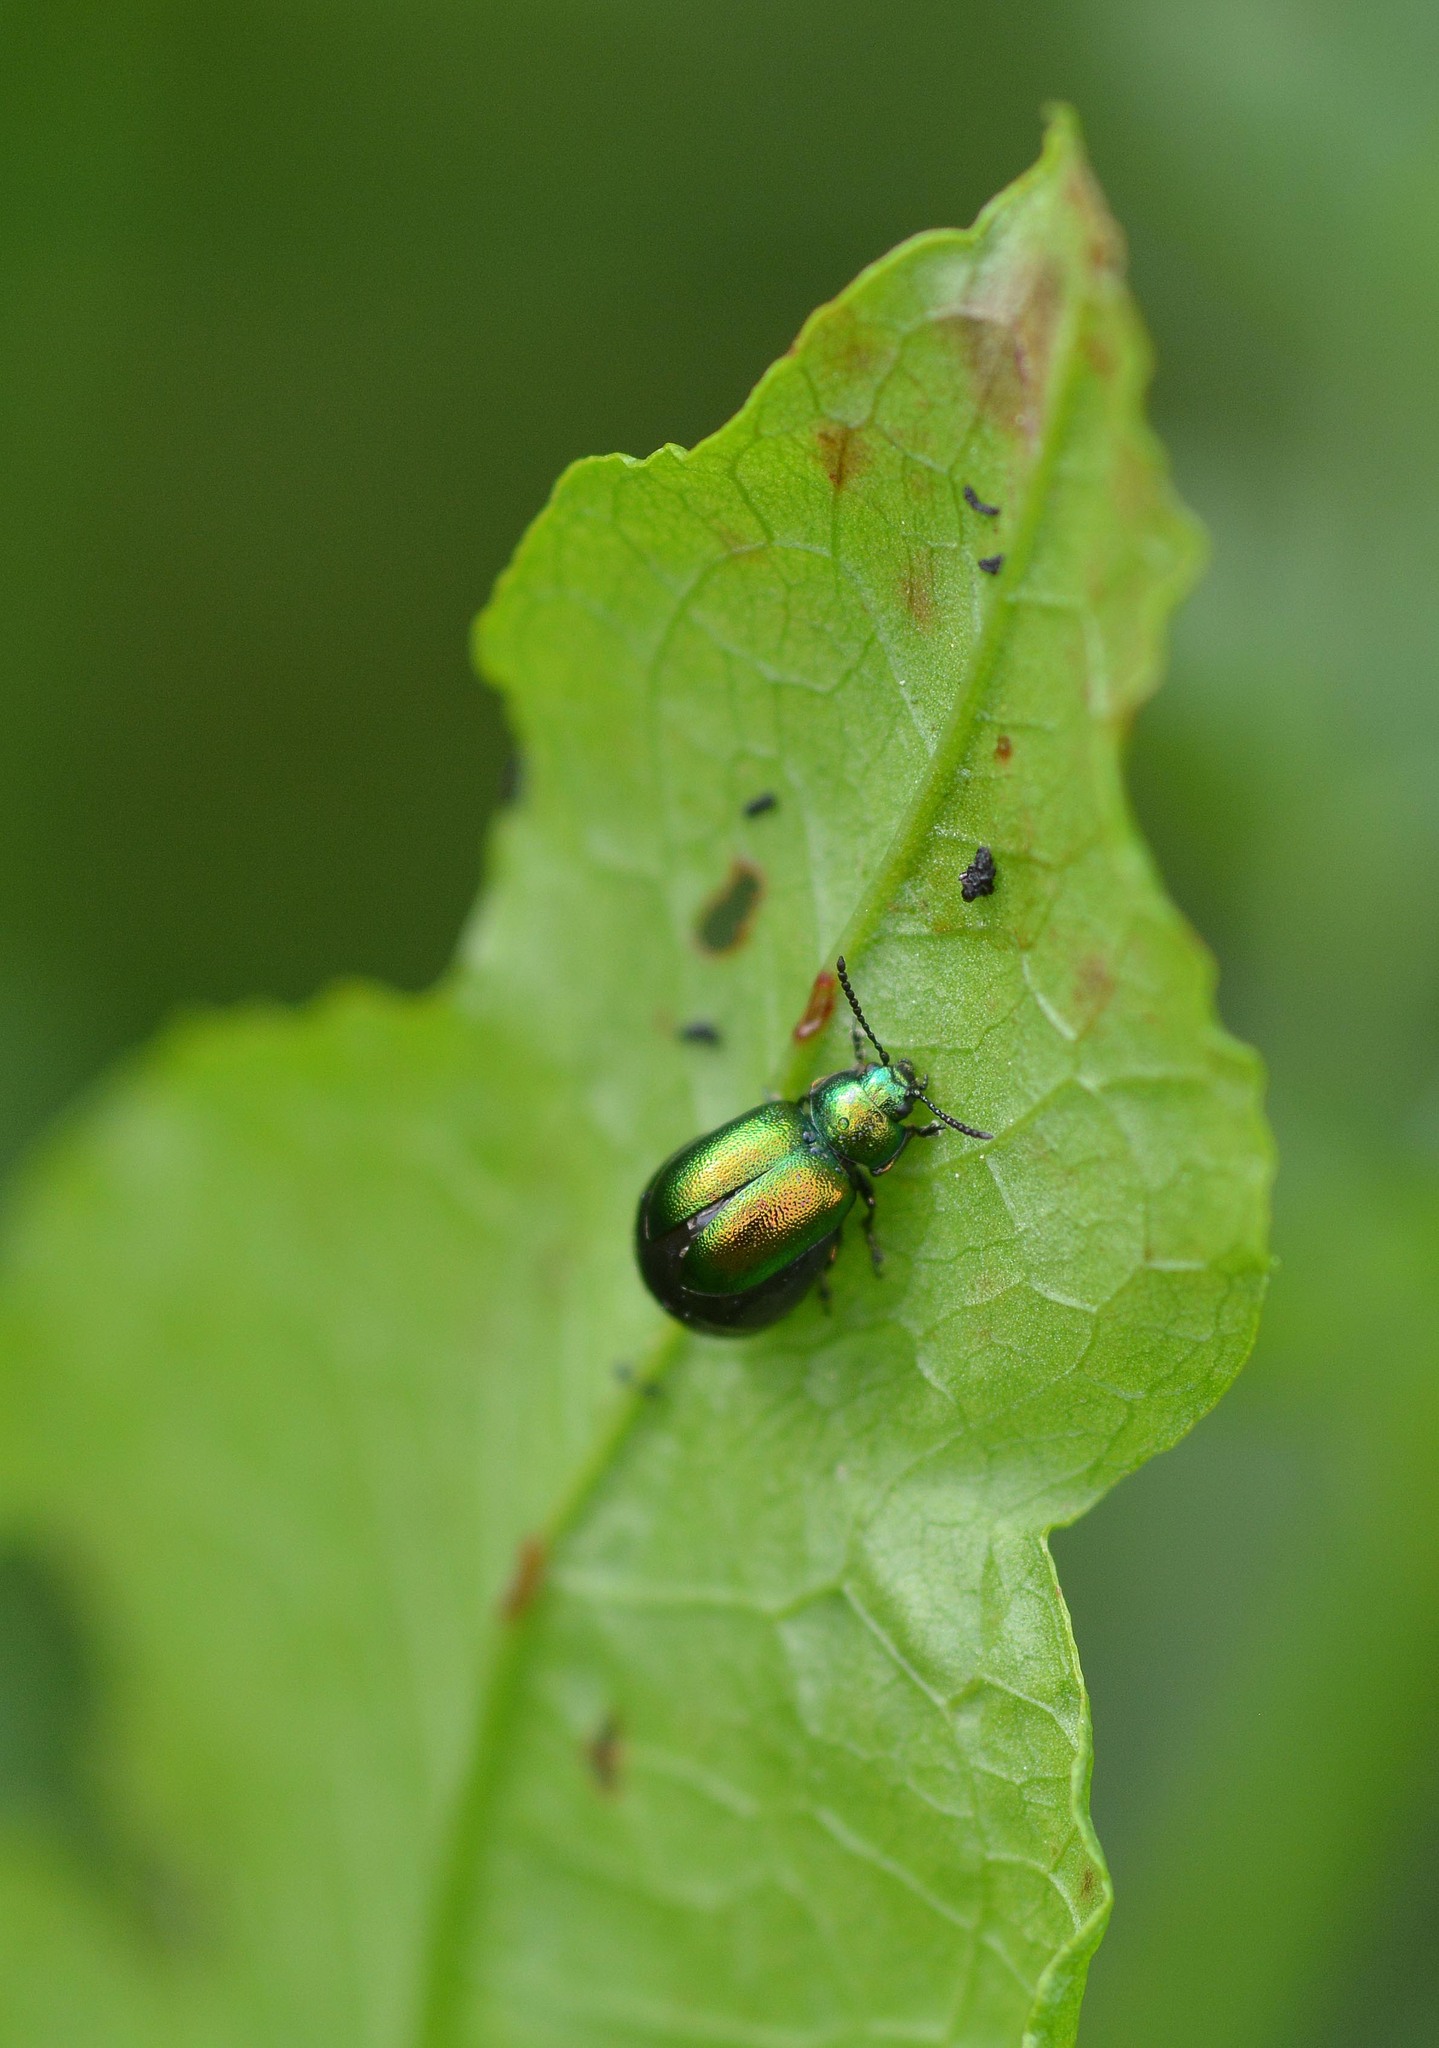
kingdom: Animalia
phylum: Arthropoda
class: Insecta
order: Coleoptera
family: Chrysomelidae
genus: Gastrophysa
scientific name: Gastrophysa viridula
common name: Green dock beetle
